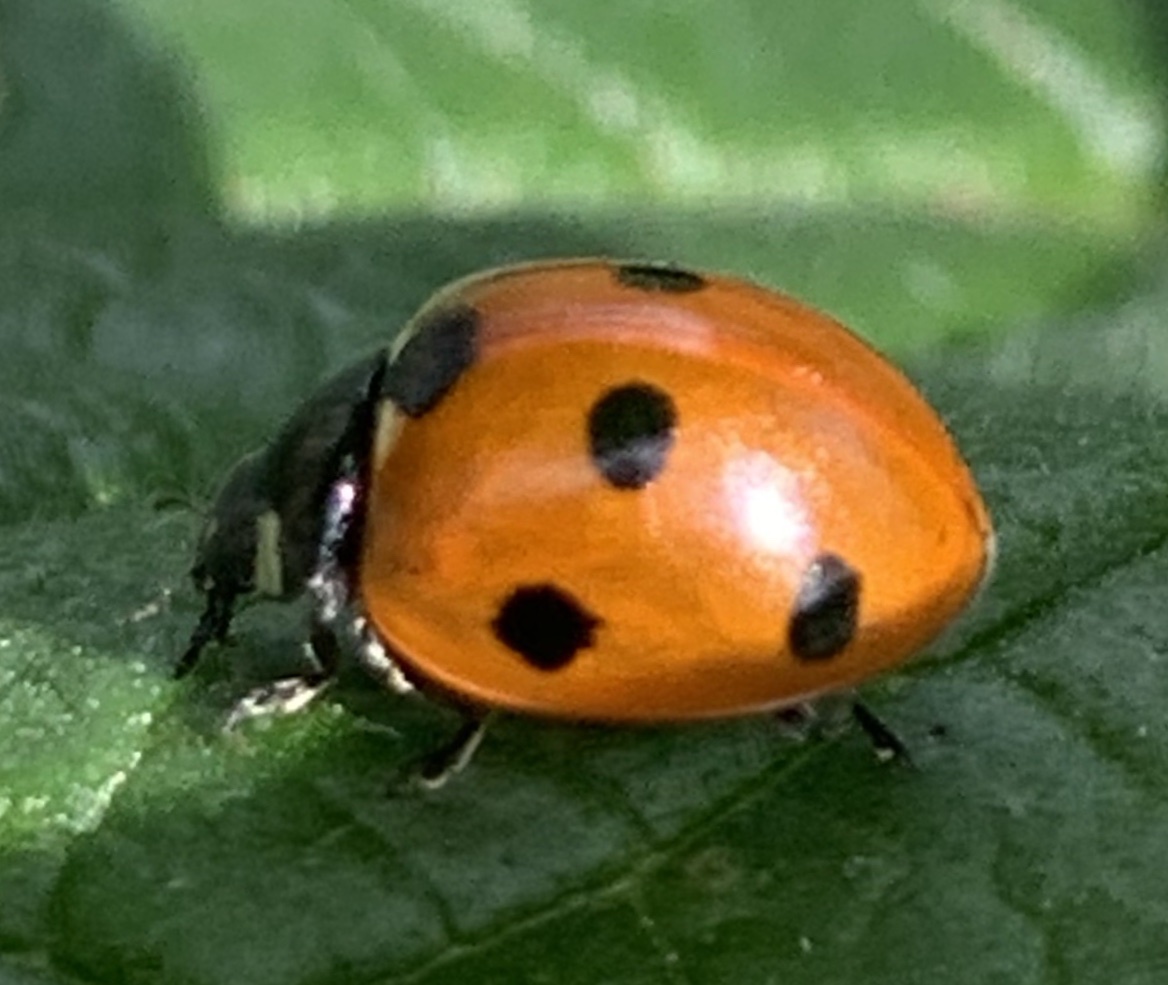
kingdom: Animalia
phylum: Arthropoda
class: Insecta
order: Coleoptera
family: Coccinellidae
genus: Coccinella
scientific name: Coccinella septempunctata
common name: Sevenspotted lady beetle
